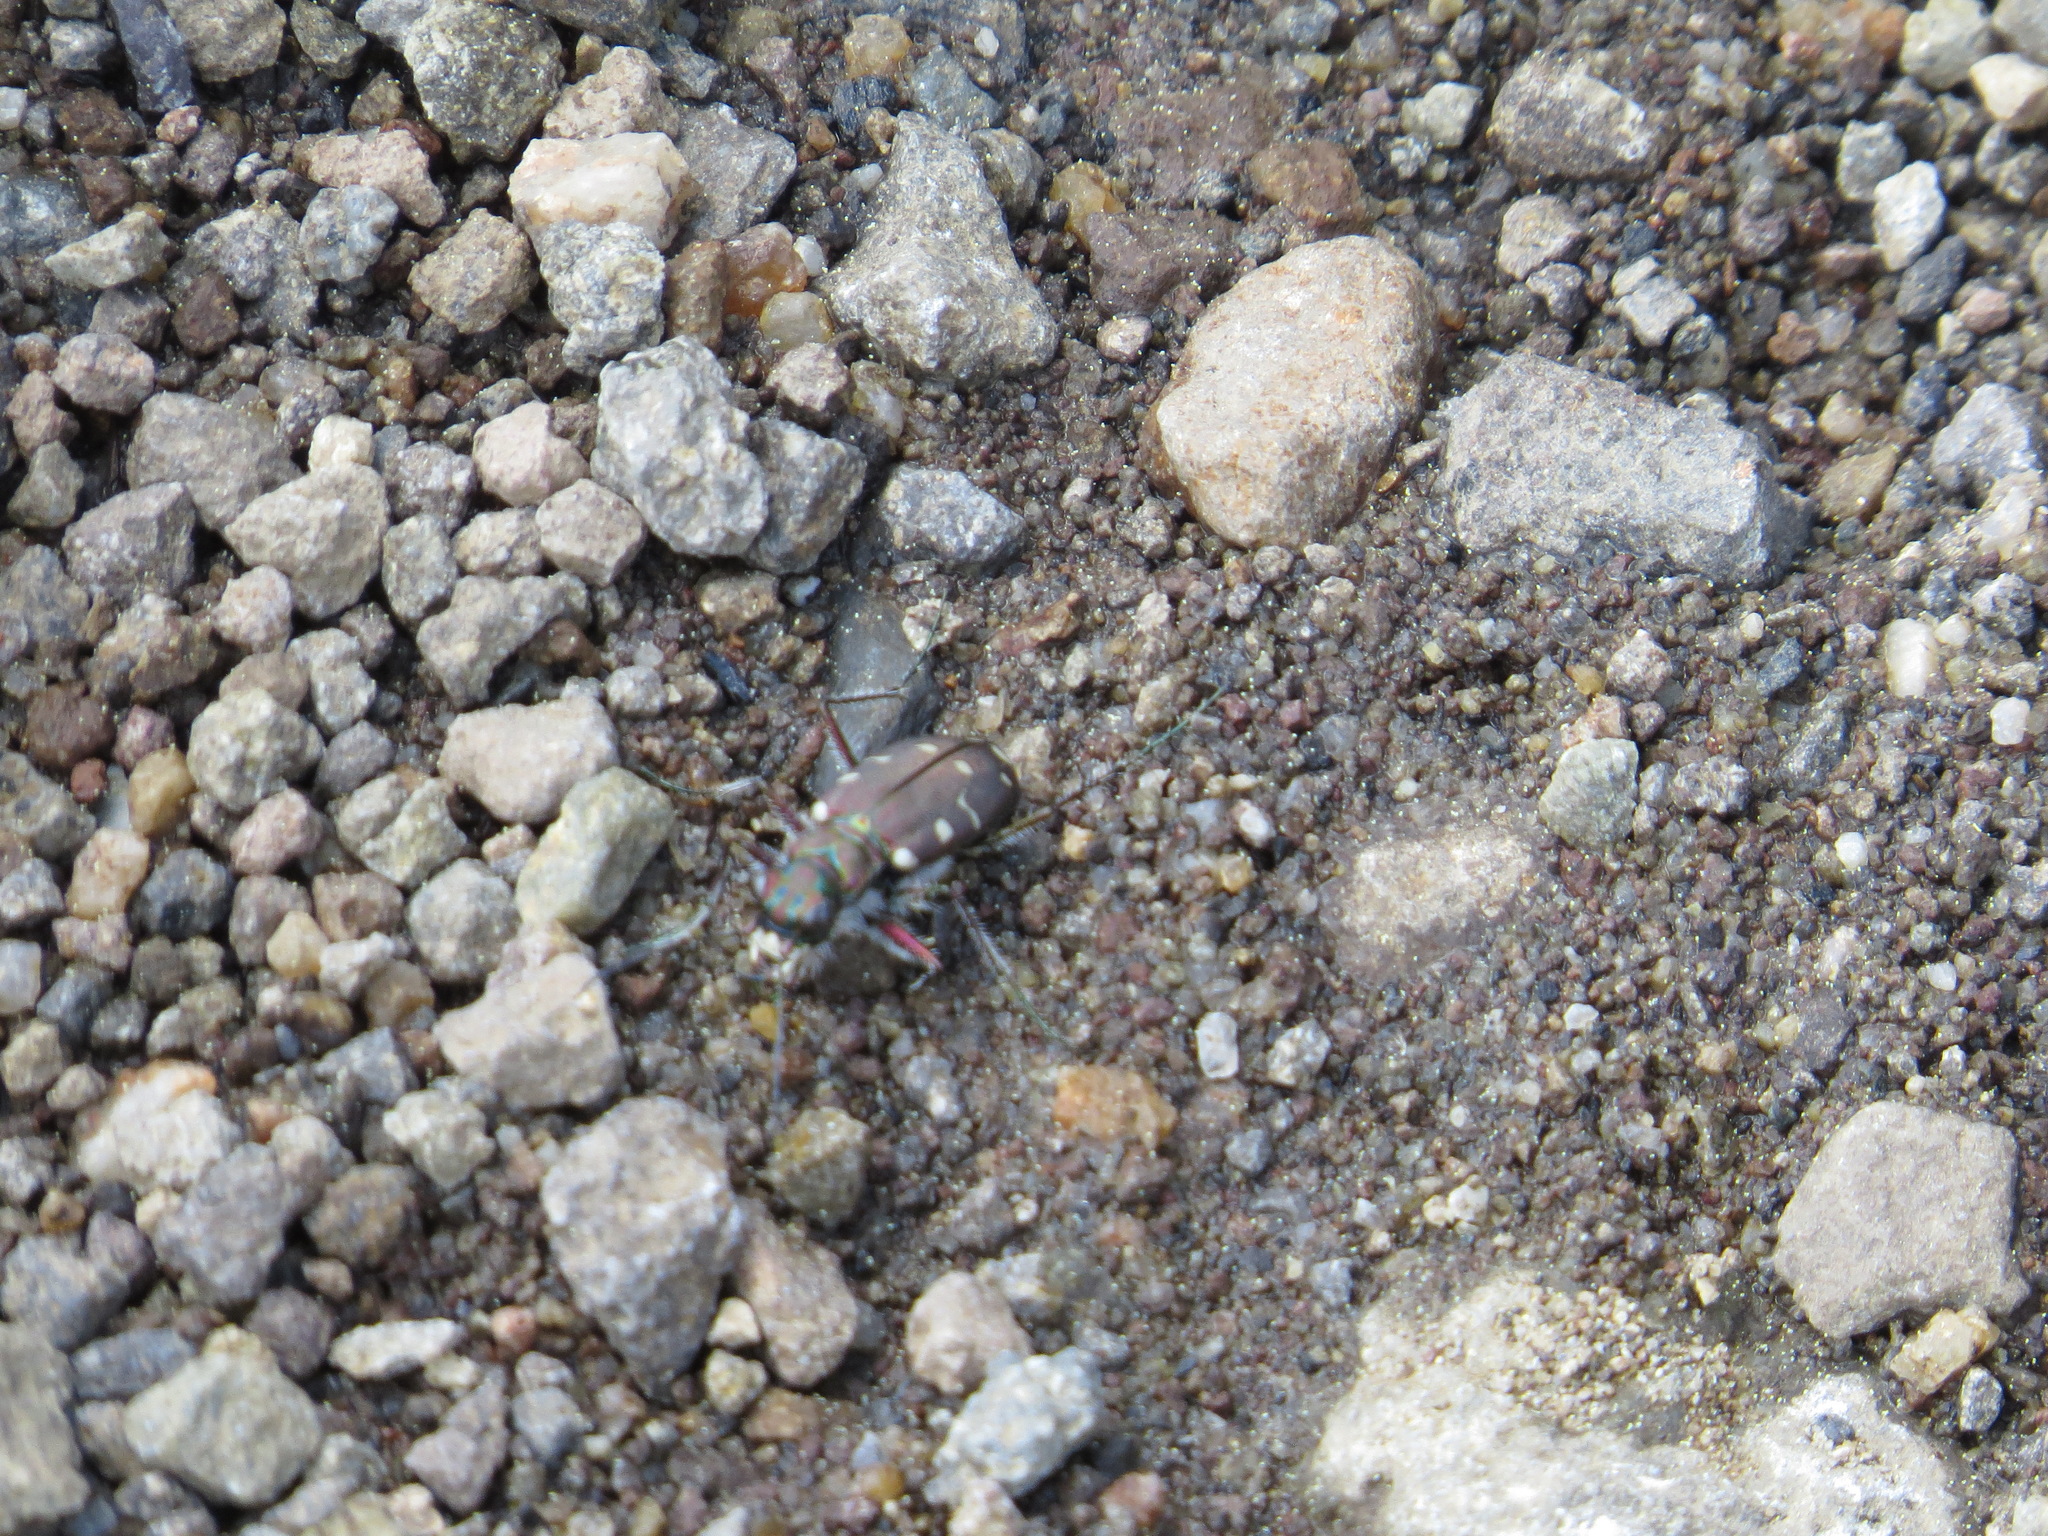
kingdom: Animalia
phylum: Arthropoda
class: Insecta
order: Coleoptera
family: Carabidae
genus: Cicindela
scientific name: Cicindela oregona
